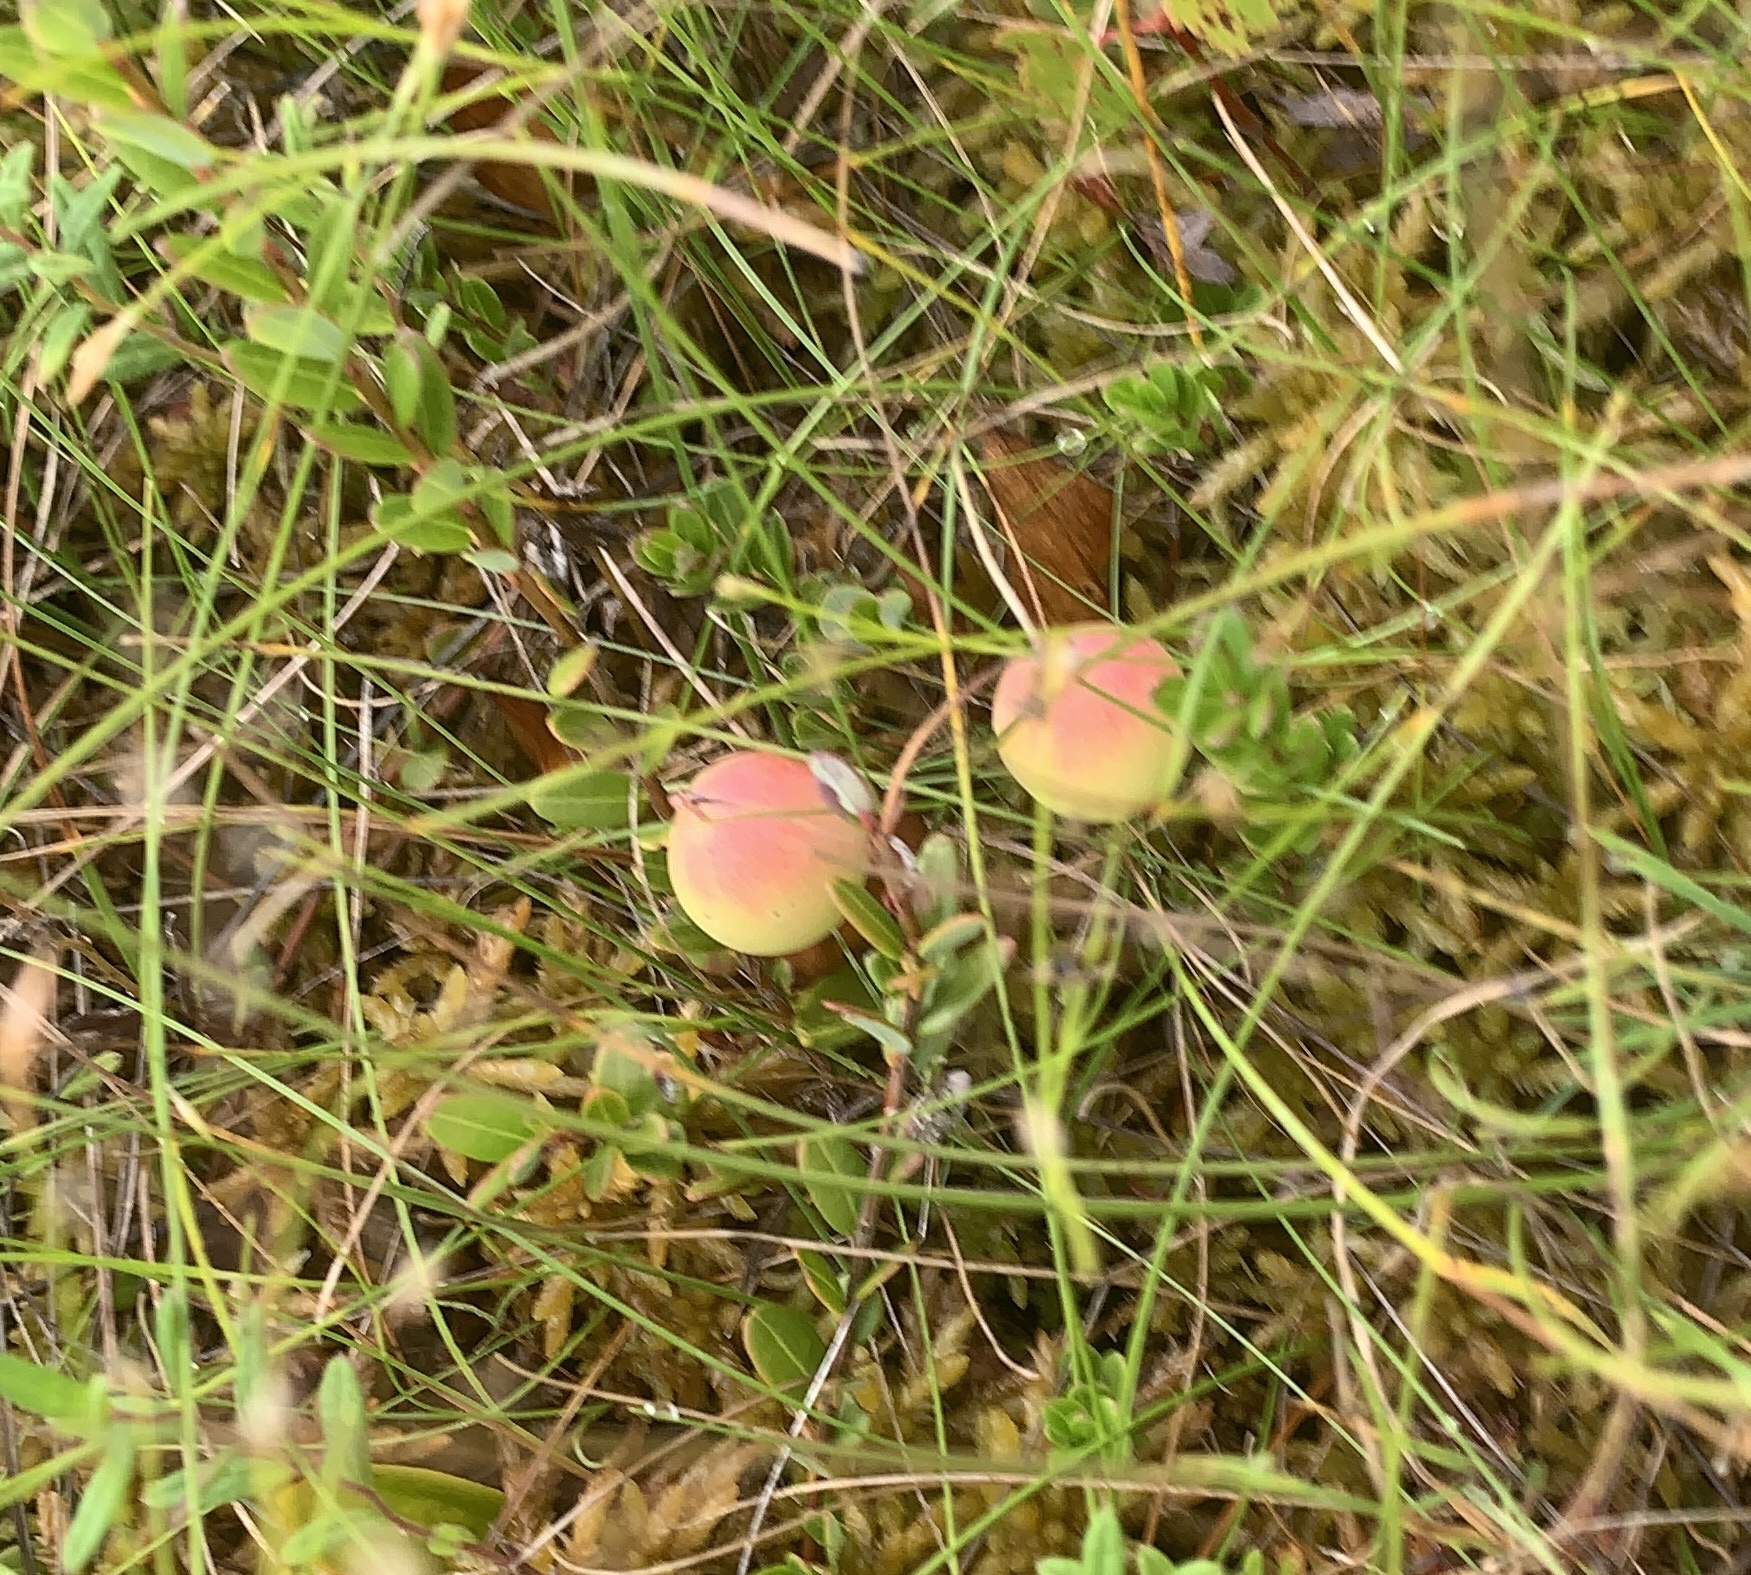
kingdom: Plantae
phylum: Tracheophyta
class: Magnoliopsida
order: Ericales
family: Ericaceae
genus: Vaccinium
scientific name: Vaccinium oxycoccos
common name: Cranberry
